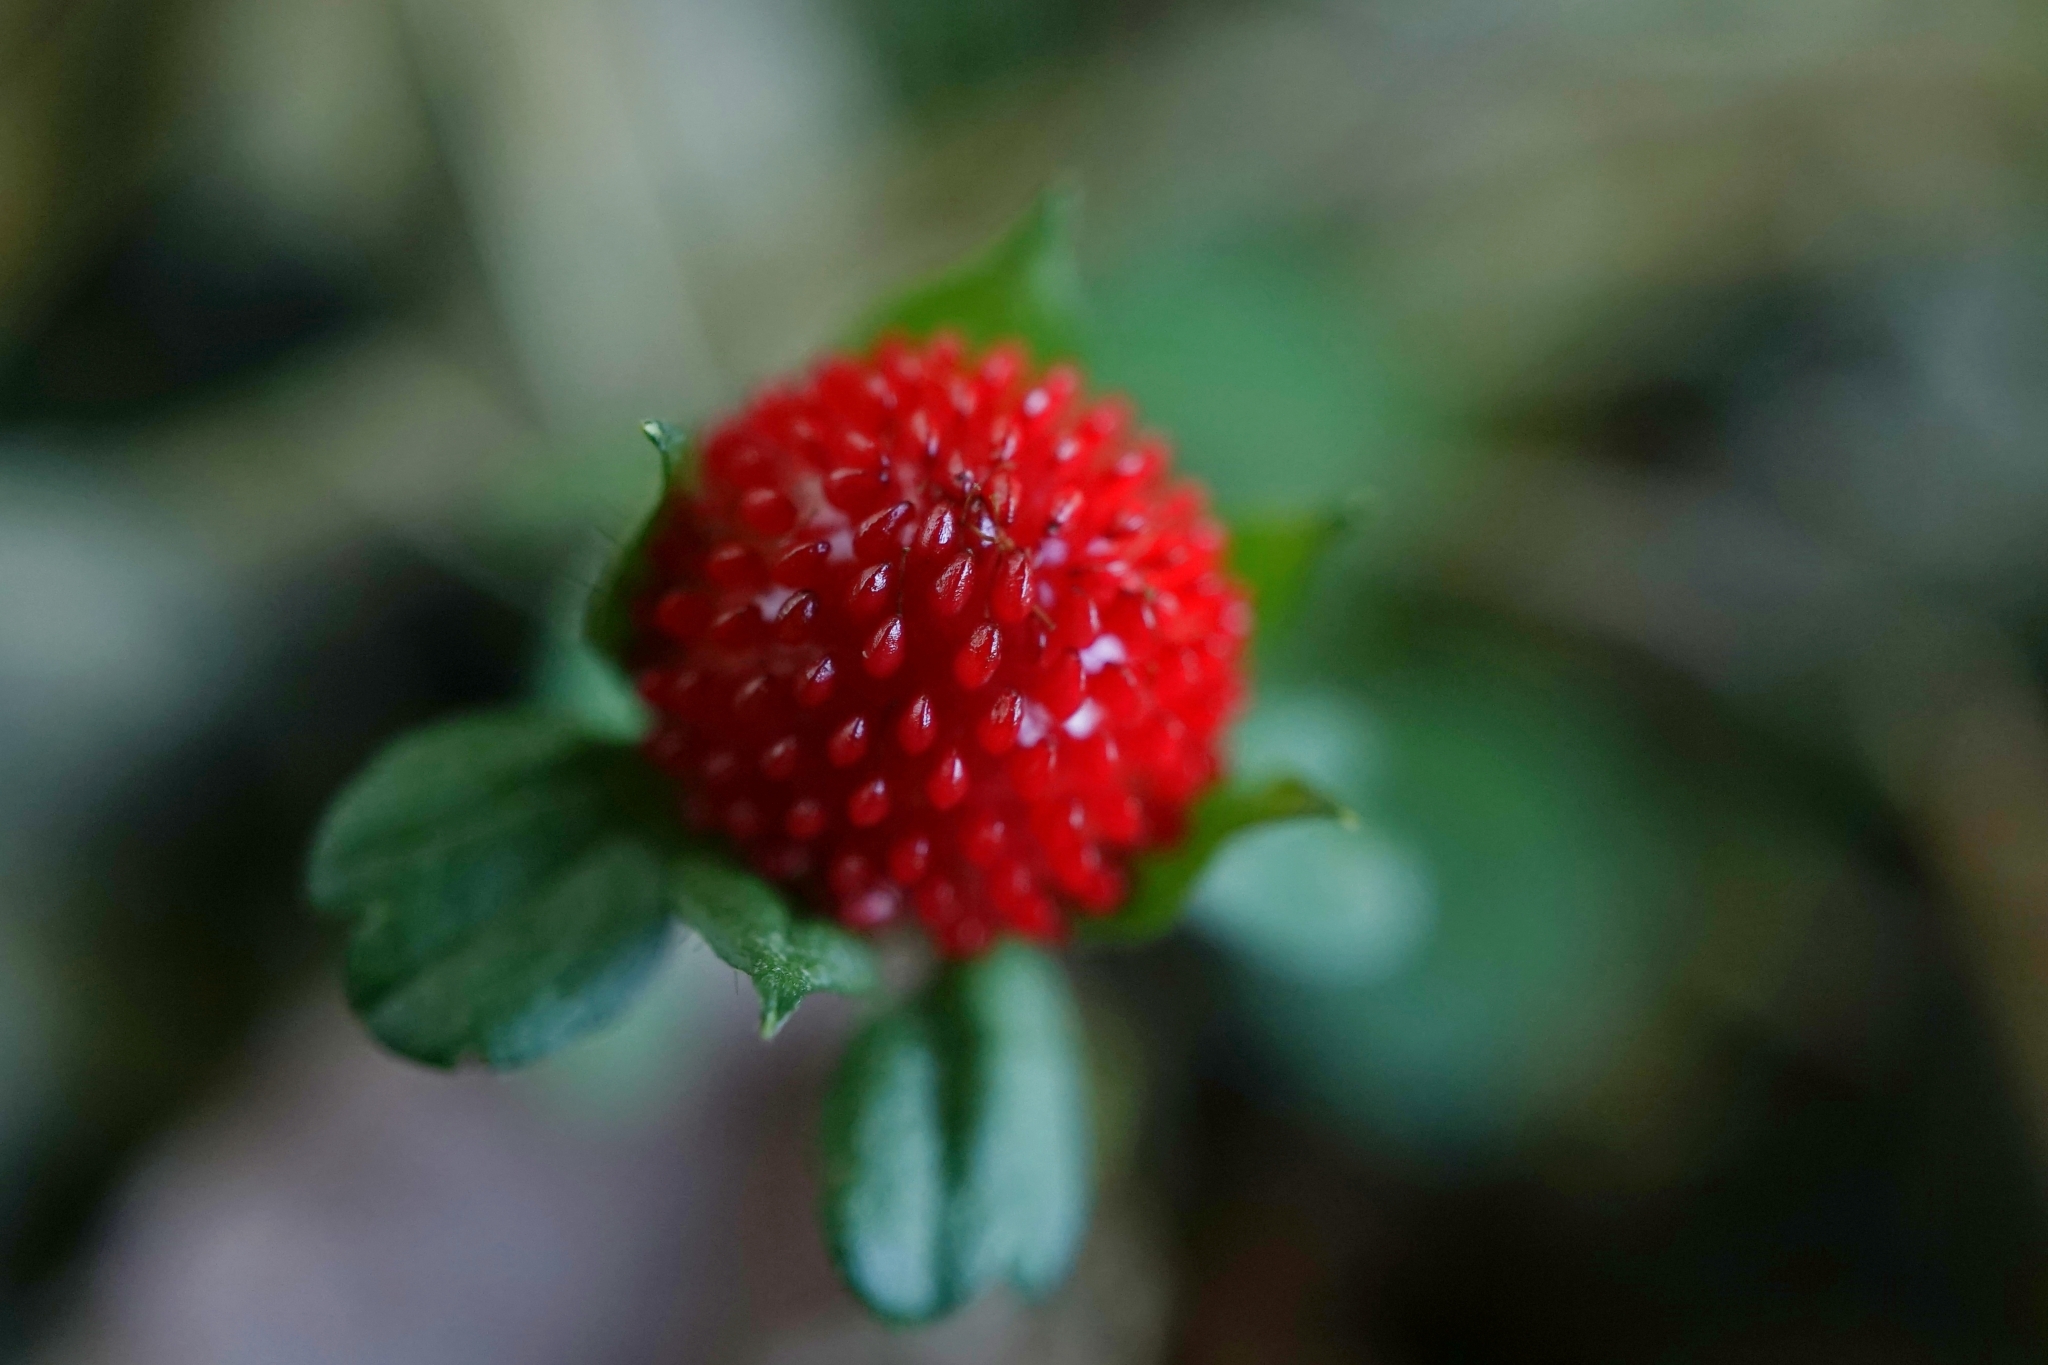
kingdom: Plantae
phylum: Tracheophyta
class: Magnoliopsida
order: Rosales
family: Rosaceae
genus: Potentilla
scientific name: Potentilla indica
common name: Yellow-flowered strawberry
